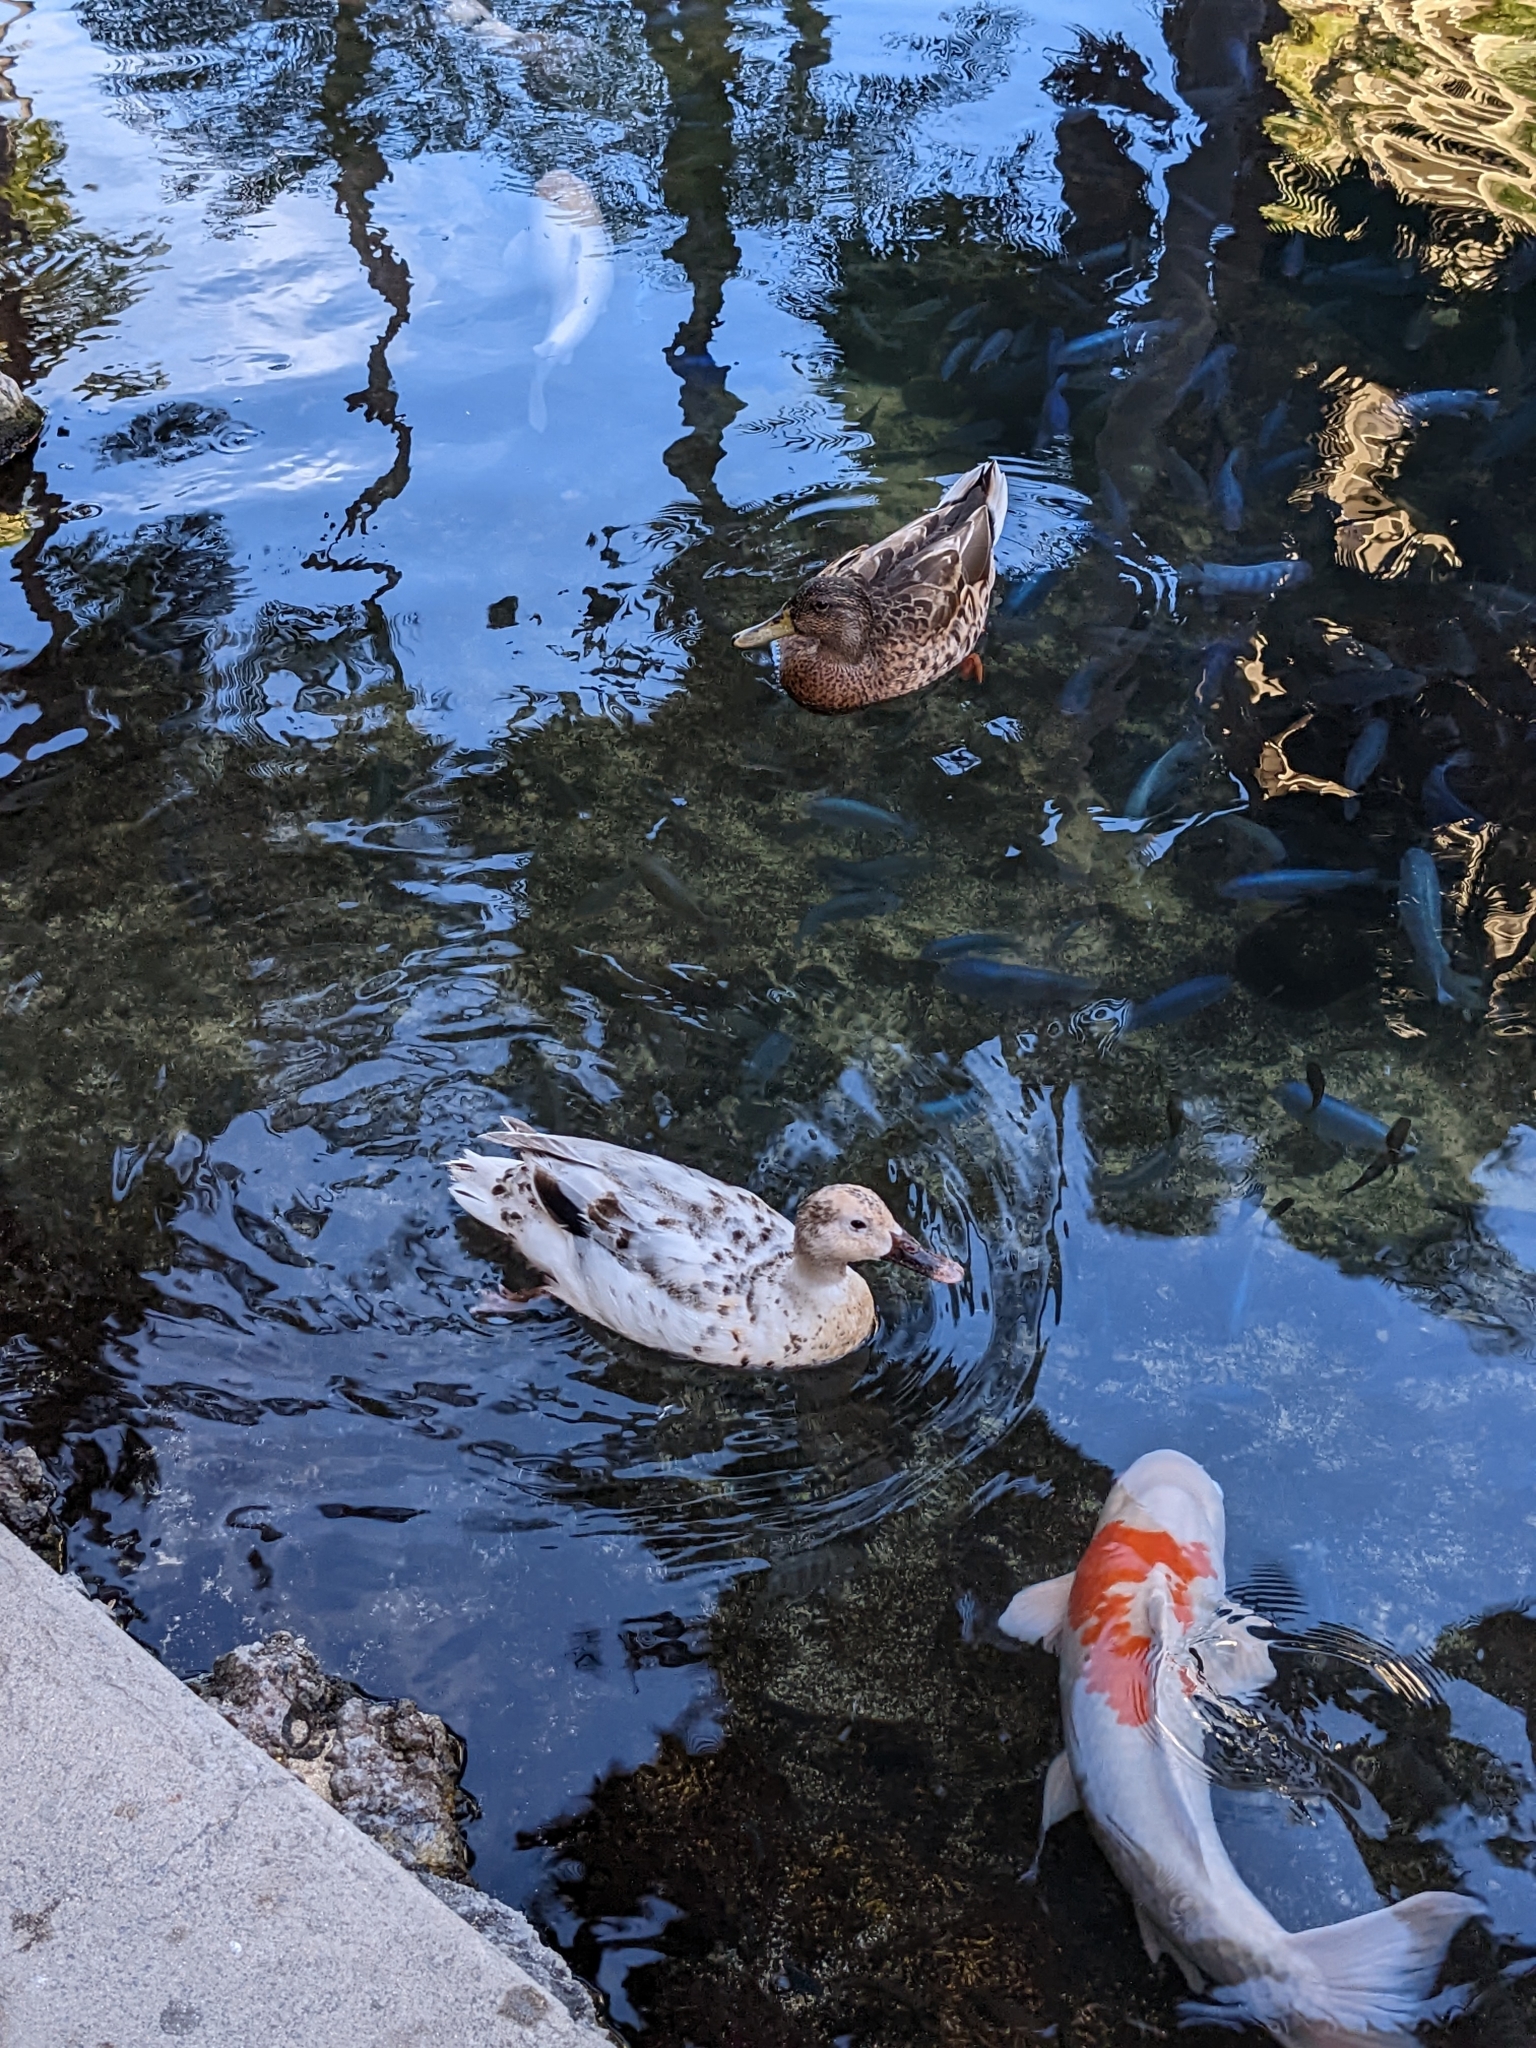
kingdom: Animalia
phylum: Chordata
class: Aves
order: Anseriformes
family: Anatidae
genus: Anas
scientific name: Anas platyrhynchos
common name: Mallard
